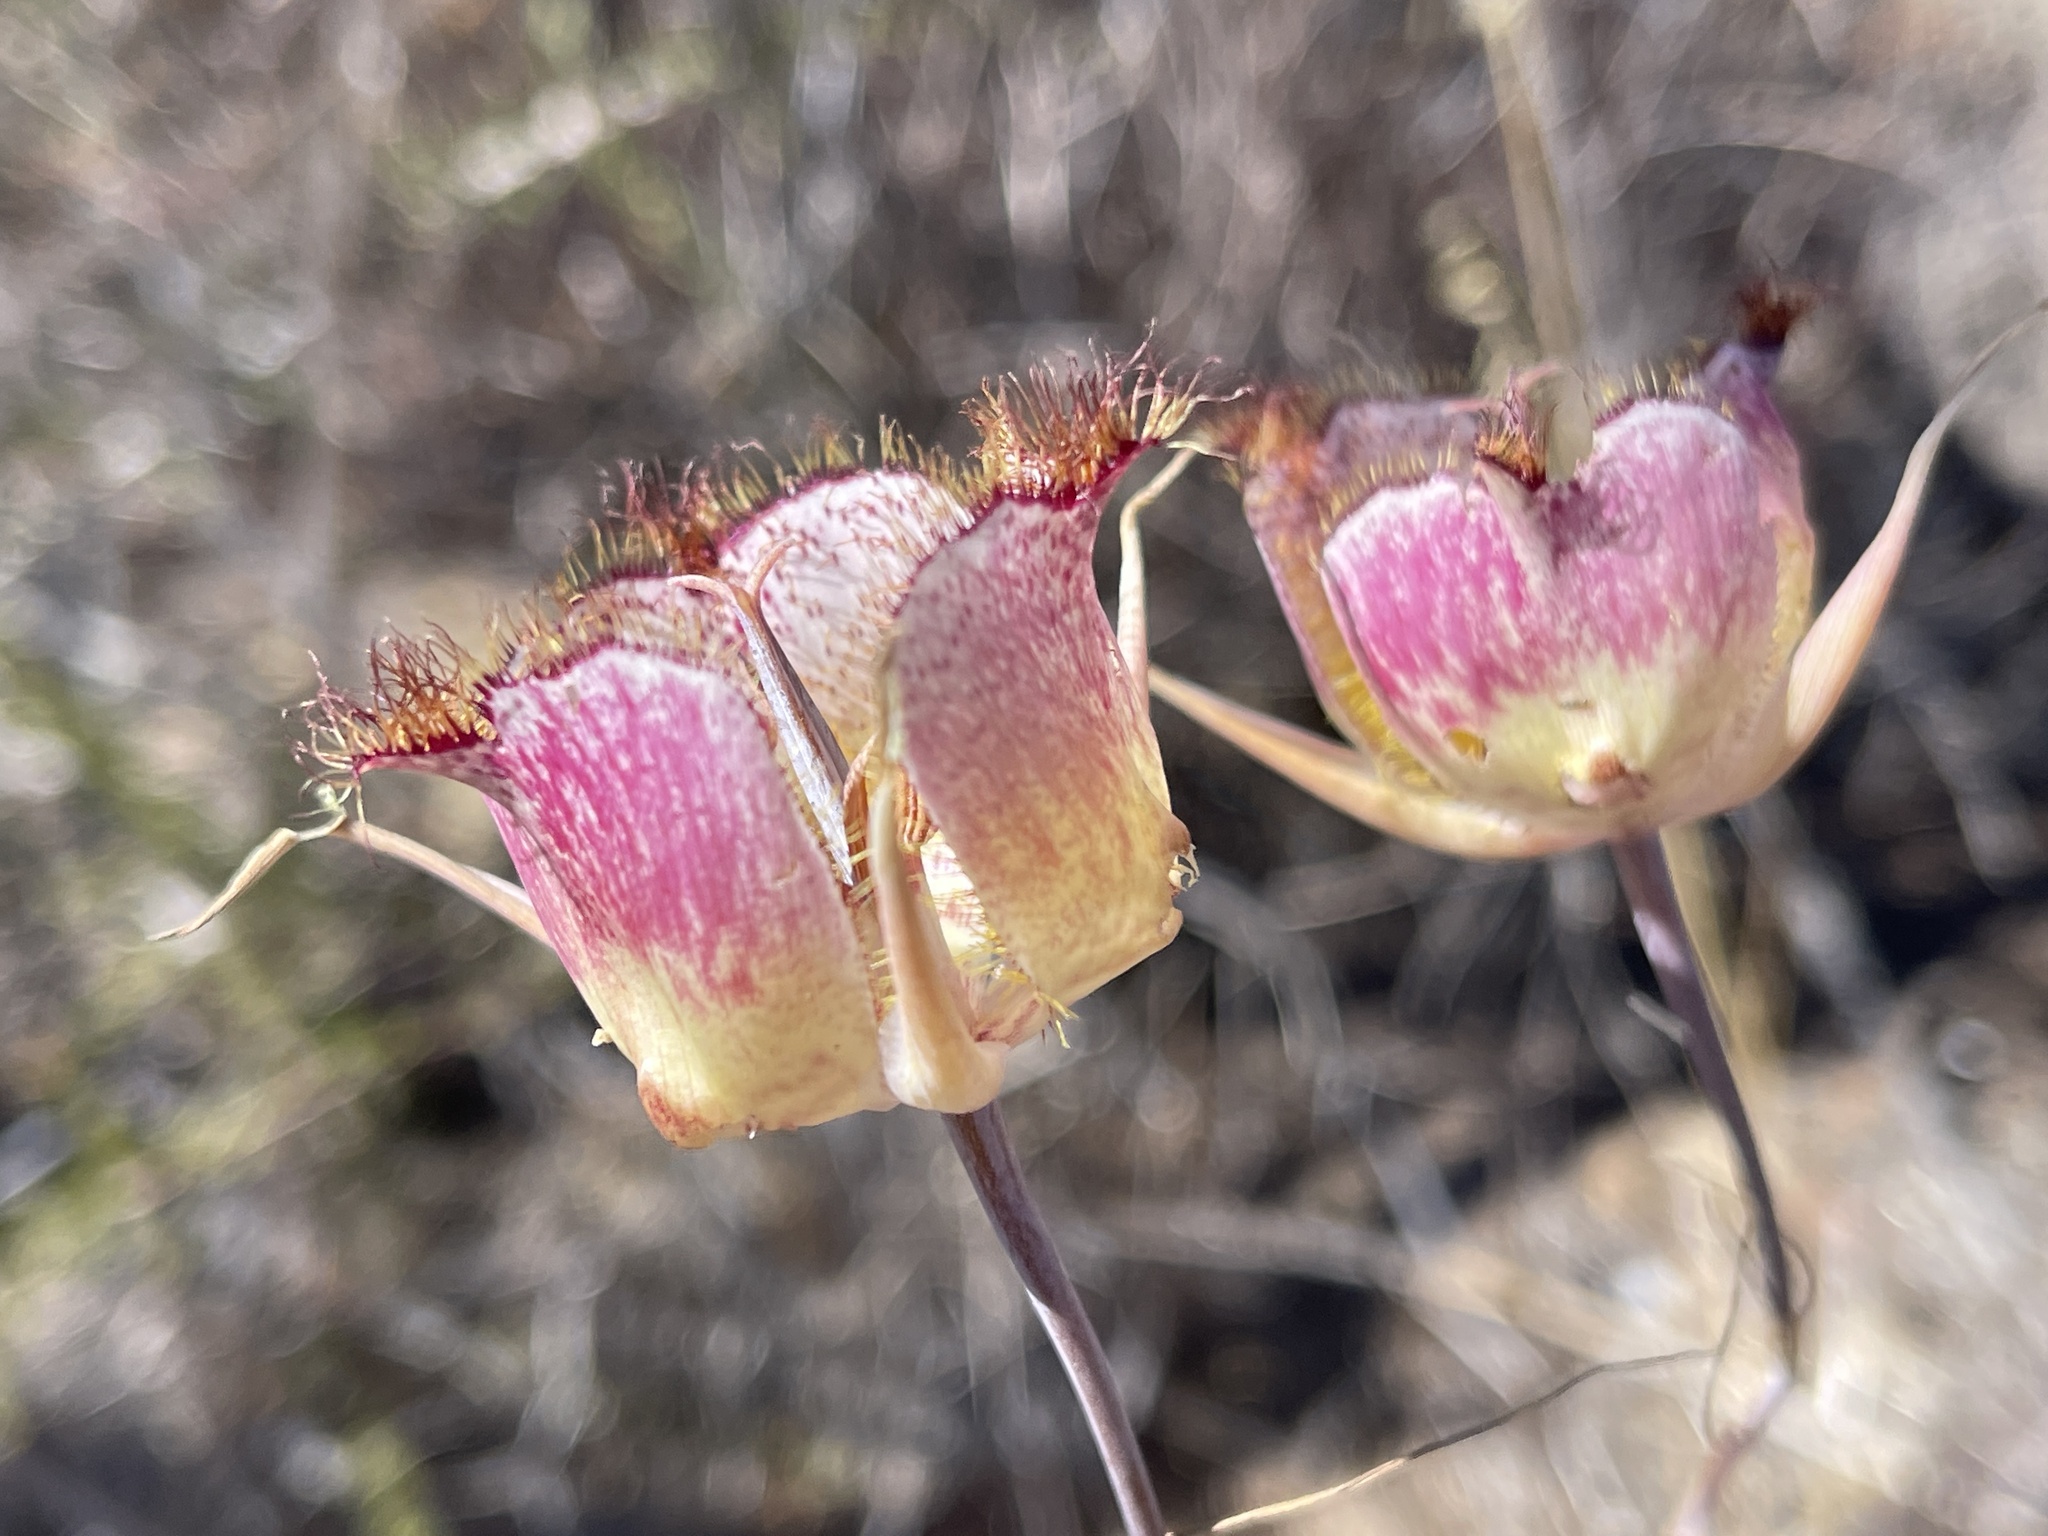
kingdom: Plantae
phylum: Tracheophyta
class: Liliopsida
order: Liliales
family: Liliaceae
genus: Calochortus
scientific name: Calochortus fimbriatus
